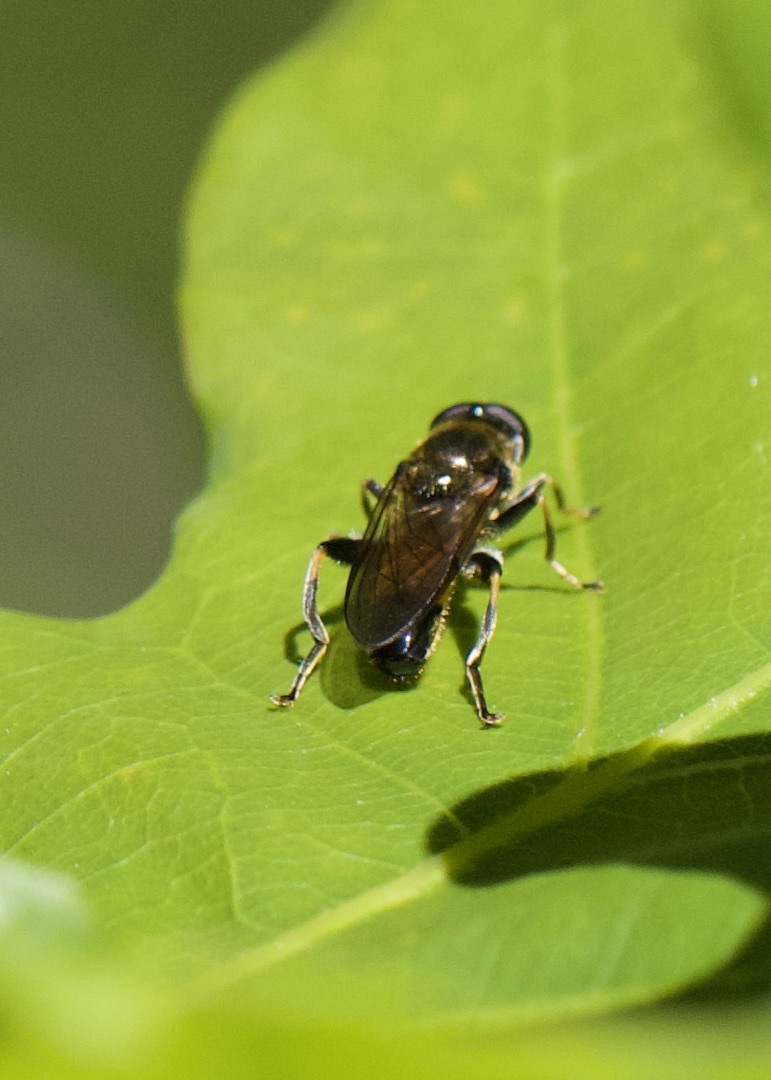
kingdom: Animalia
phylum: Arthropoda
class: Insecta
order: Diptera
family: Syrphidae
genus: Xylota
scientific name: Xylota segnis
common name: Brown-toed forest fly
